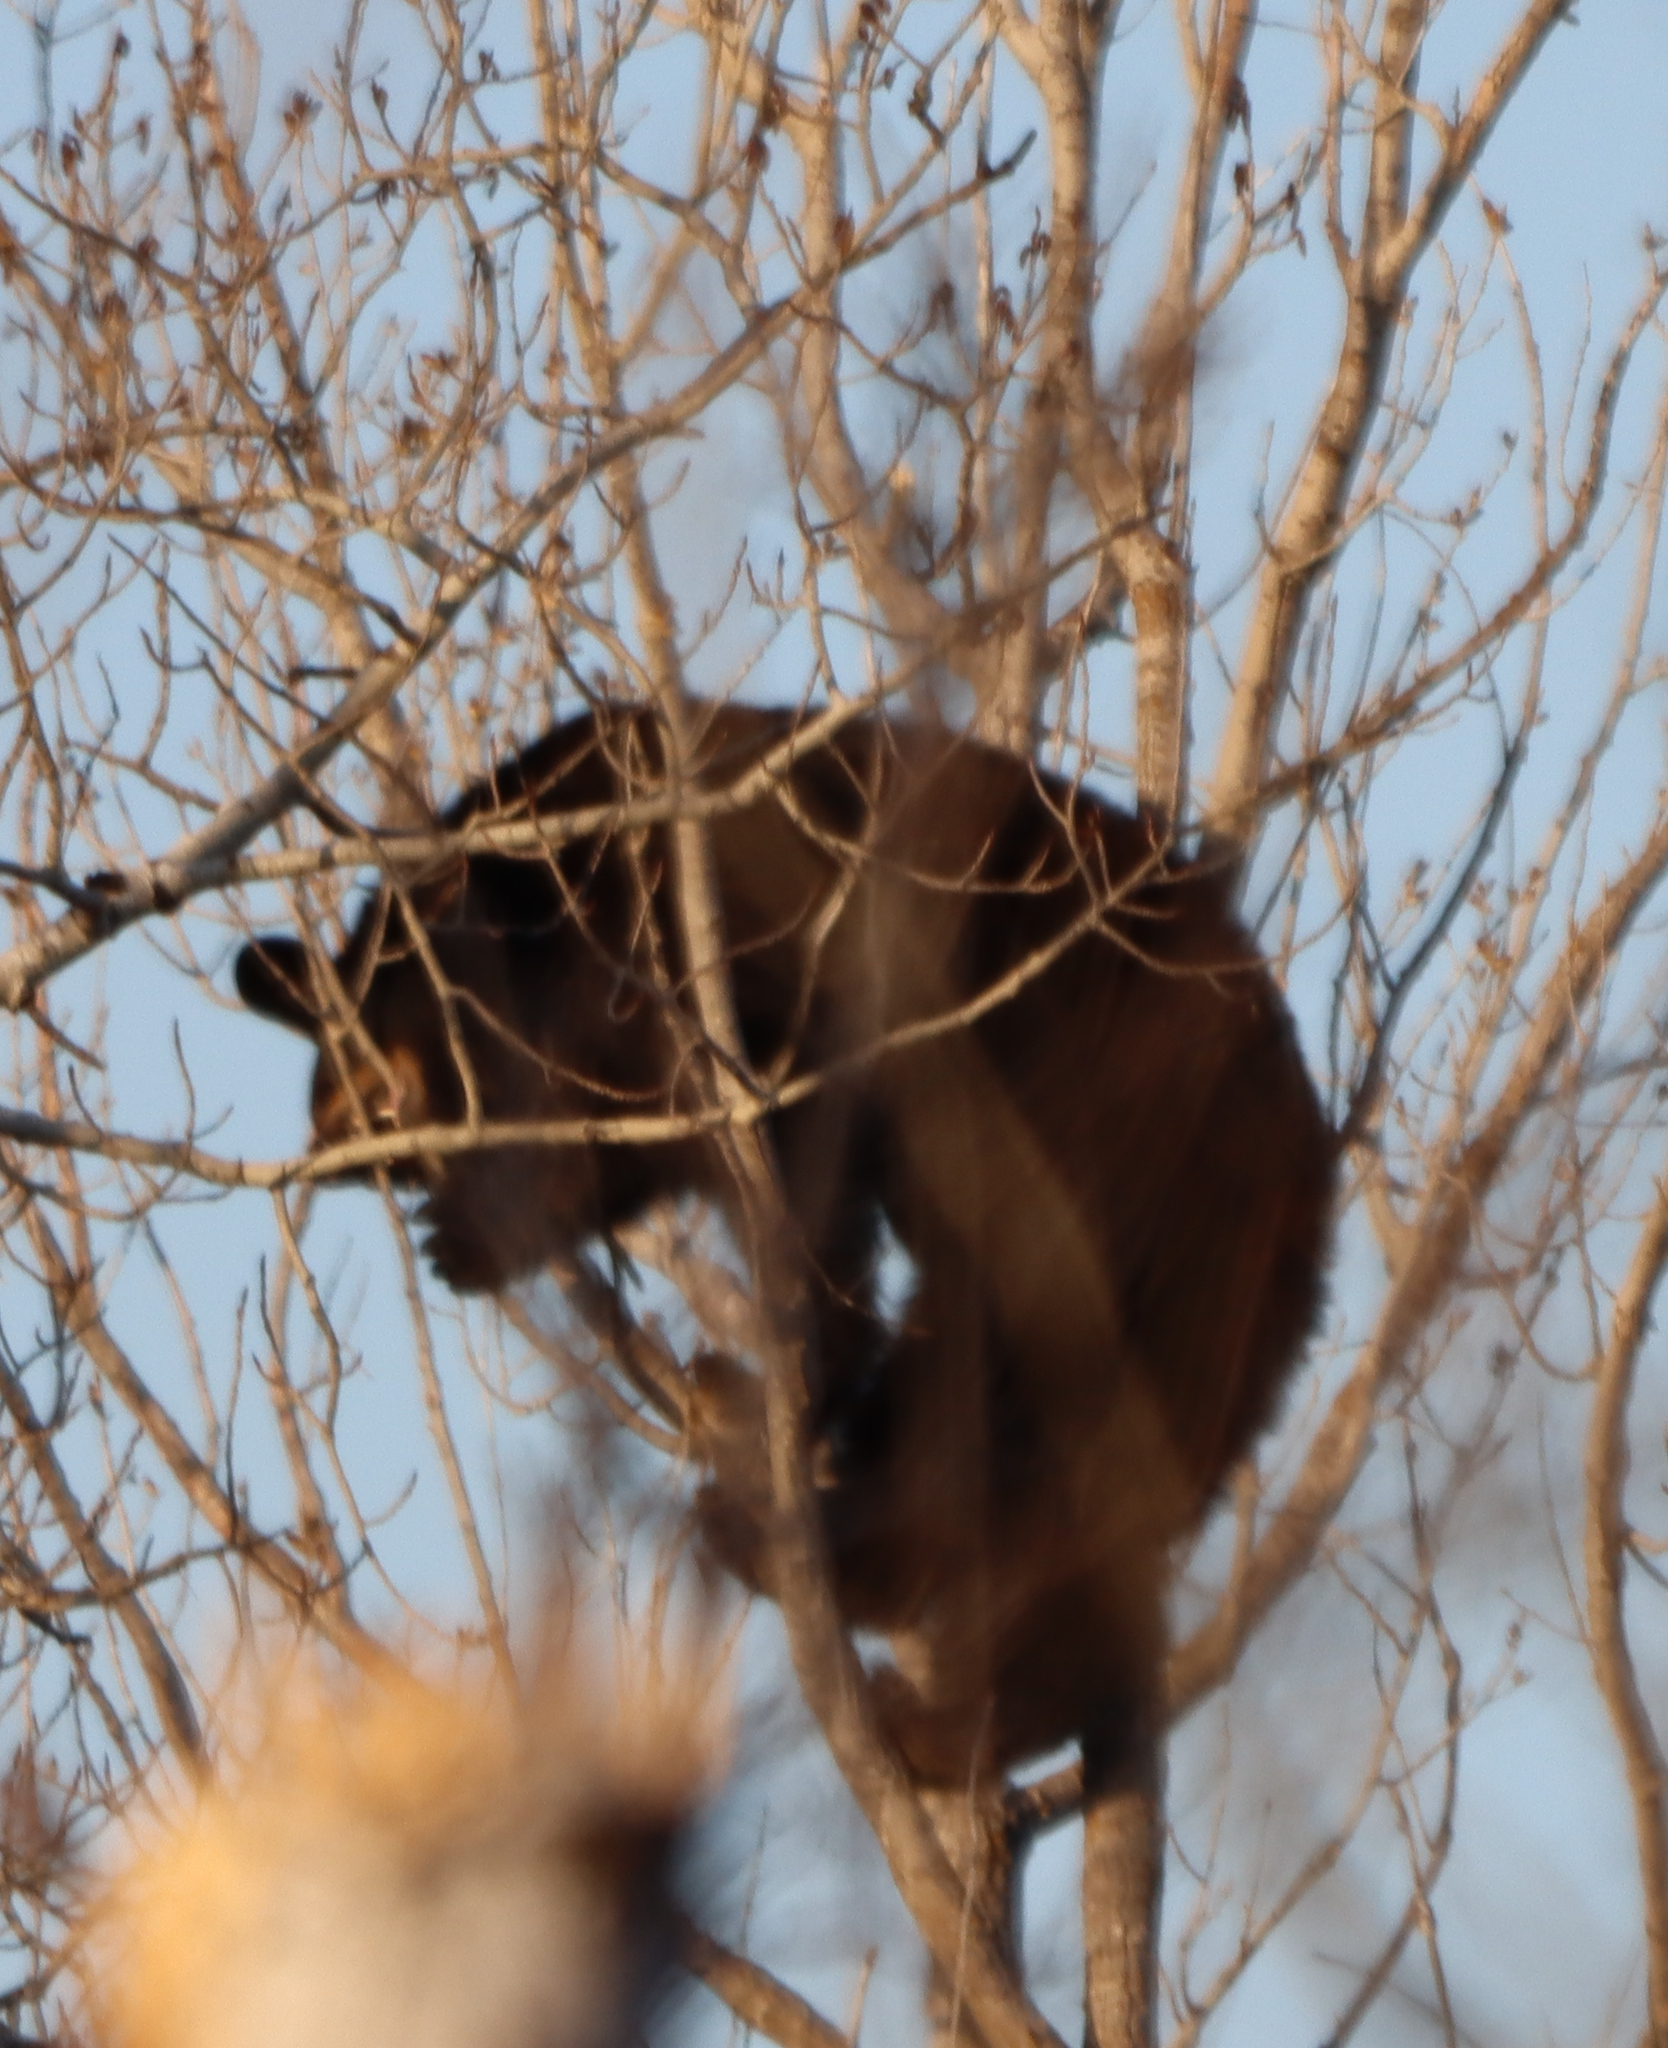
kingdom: Animalia
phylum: Chordata
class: Mammalia
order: Carnivora
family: Ursidae
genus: Ursus
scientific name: Ursus americanus
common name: American black bear
